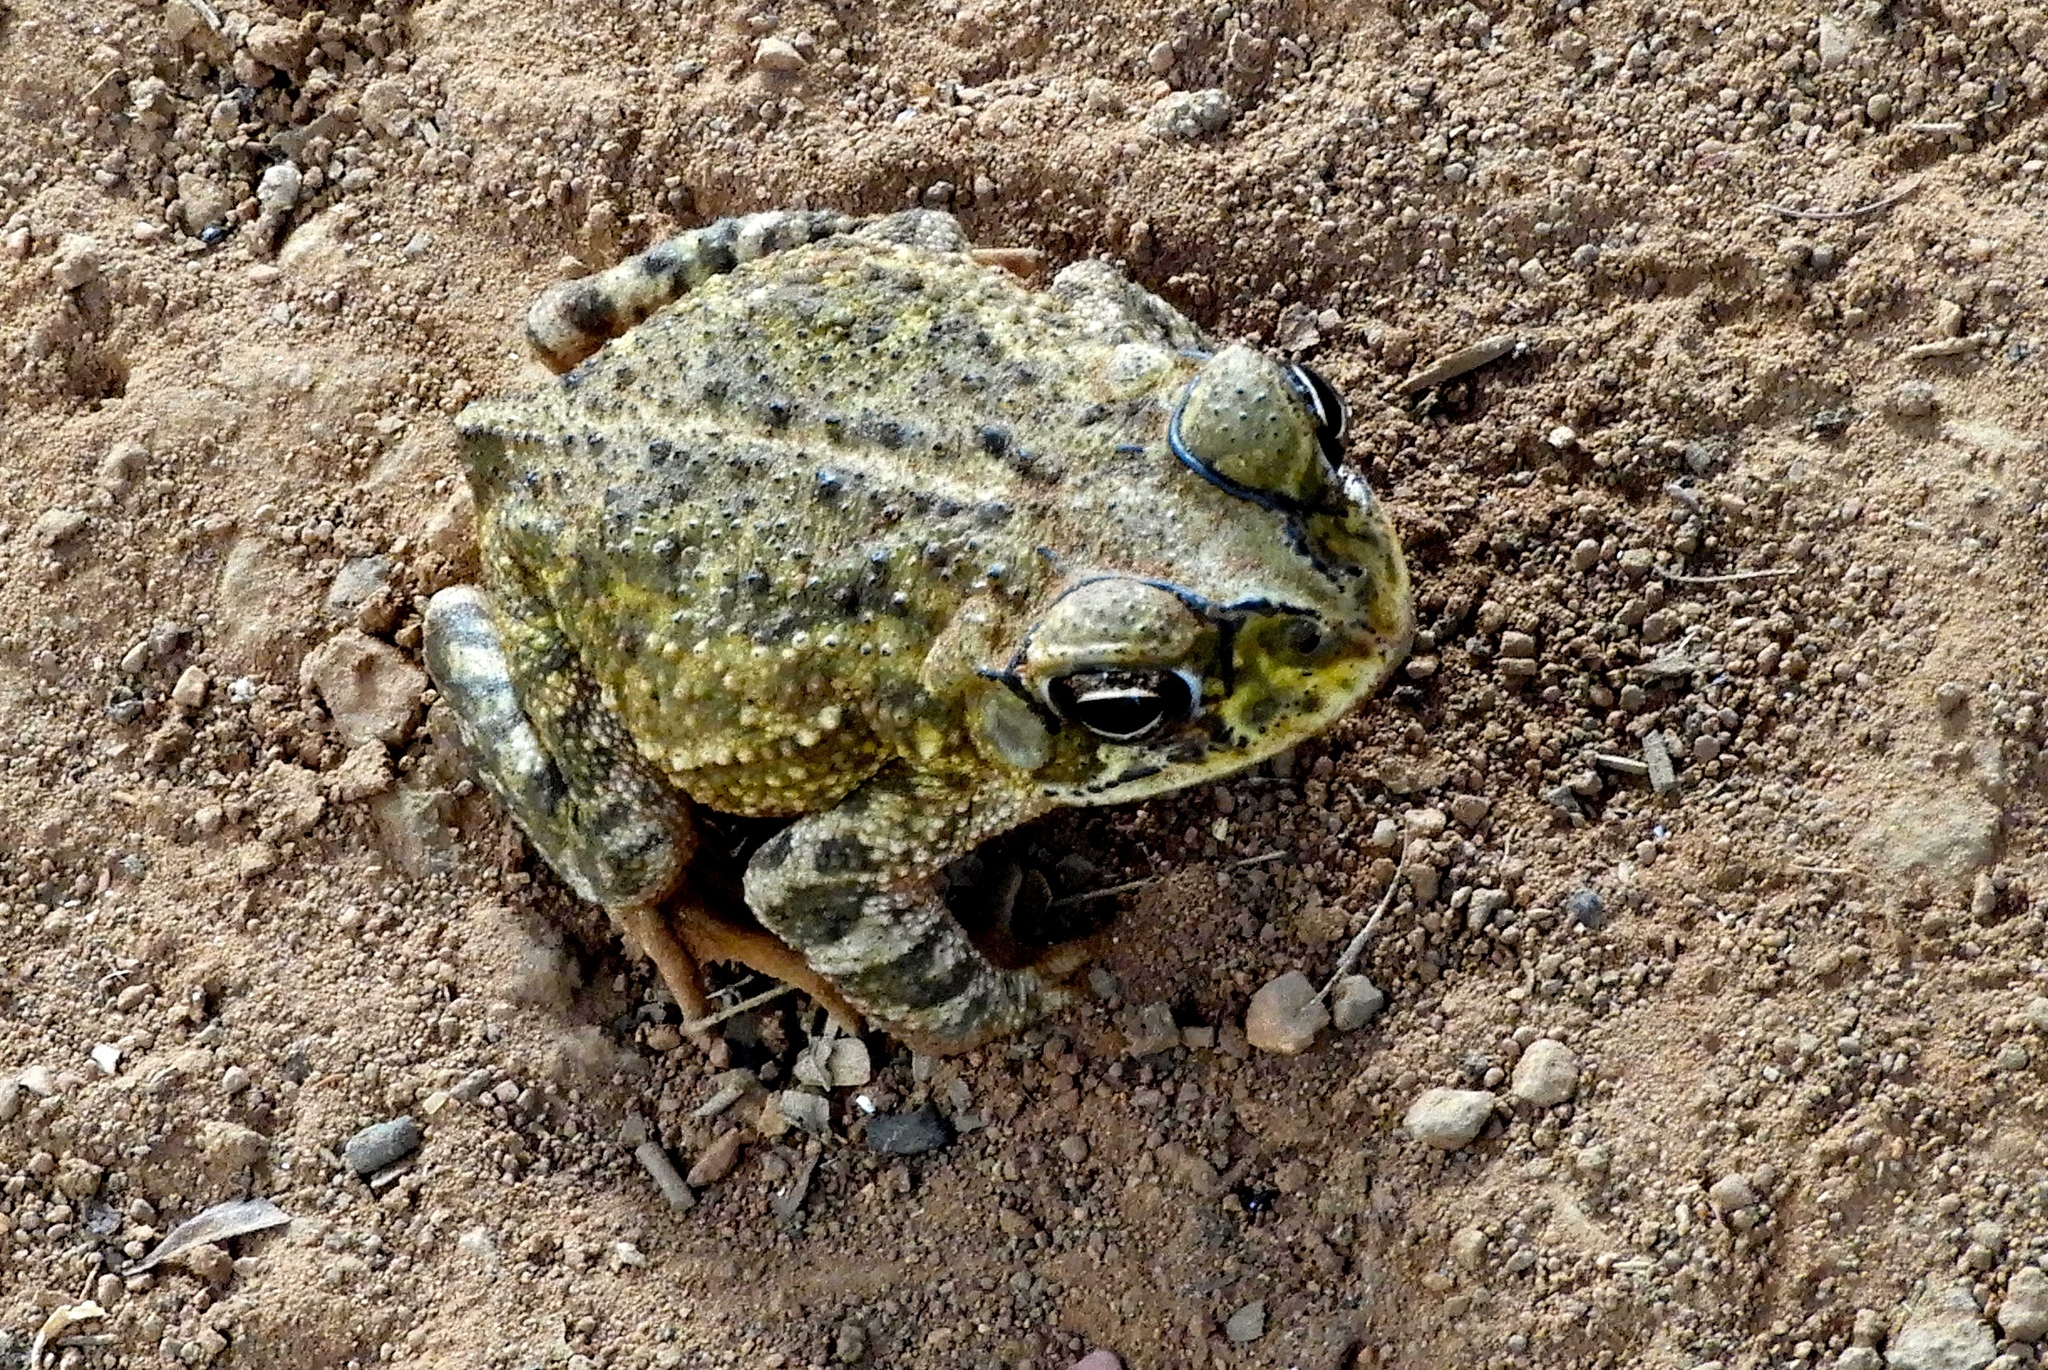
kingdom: Animalia
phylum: Chordata
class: Amphibia
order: Anura
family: Bufonidae
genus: Incilius
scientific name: Incilius mazatlanensis
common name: Sinaloa toad
